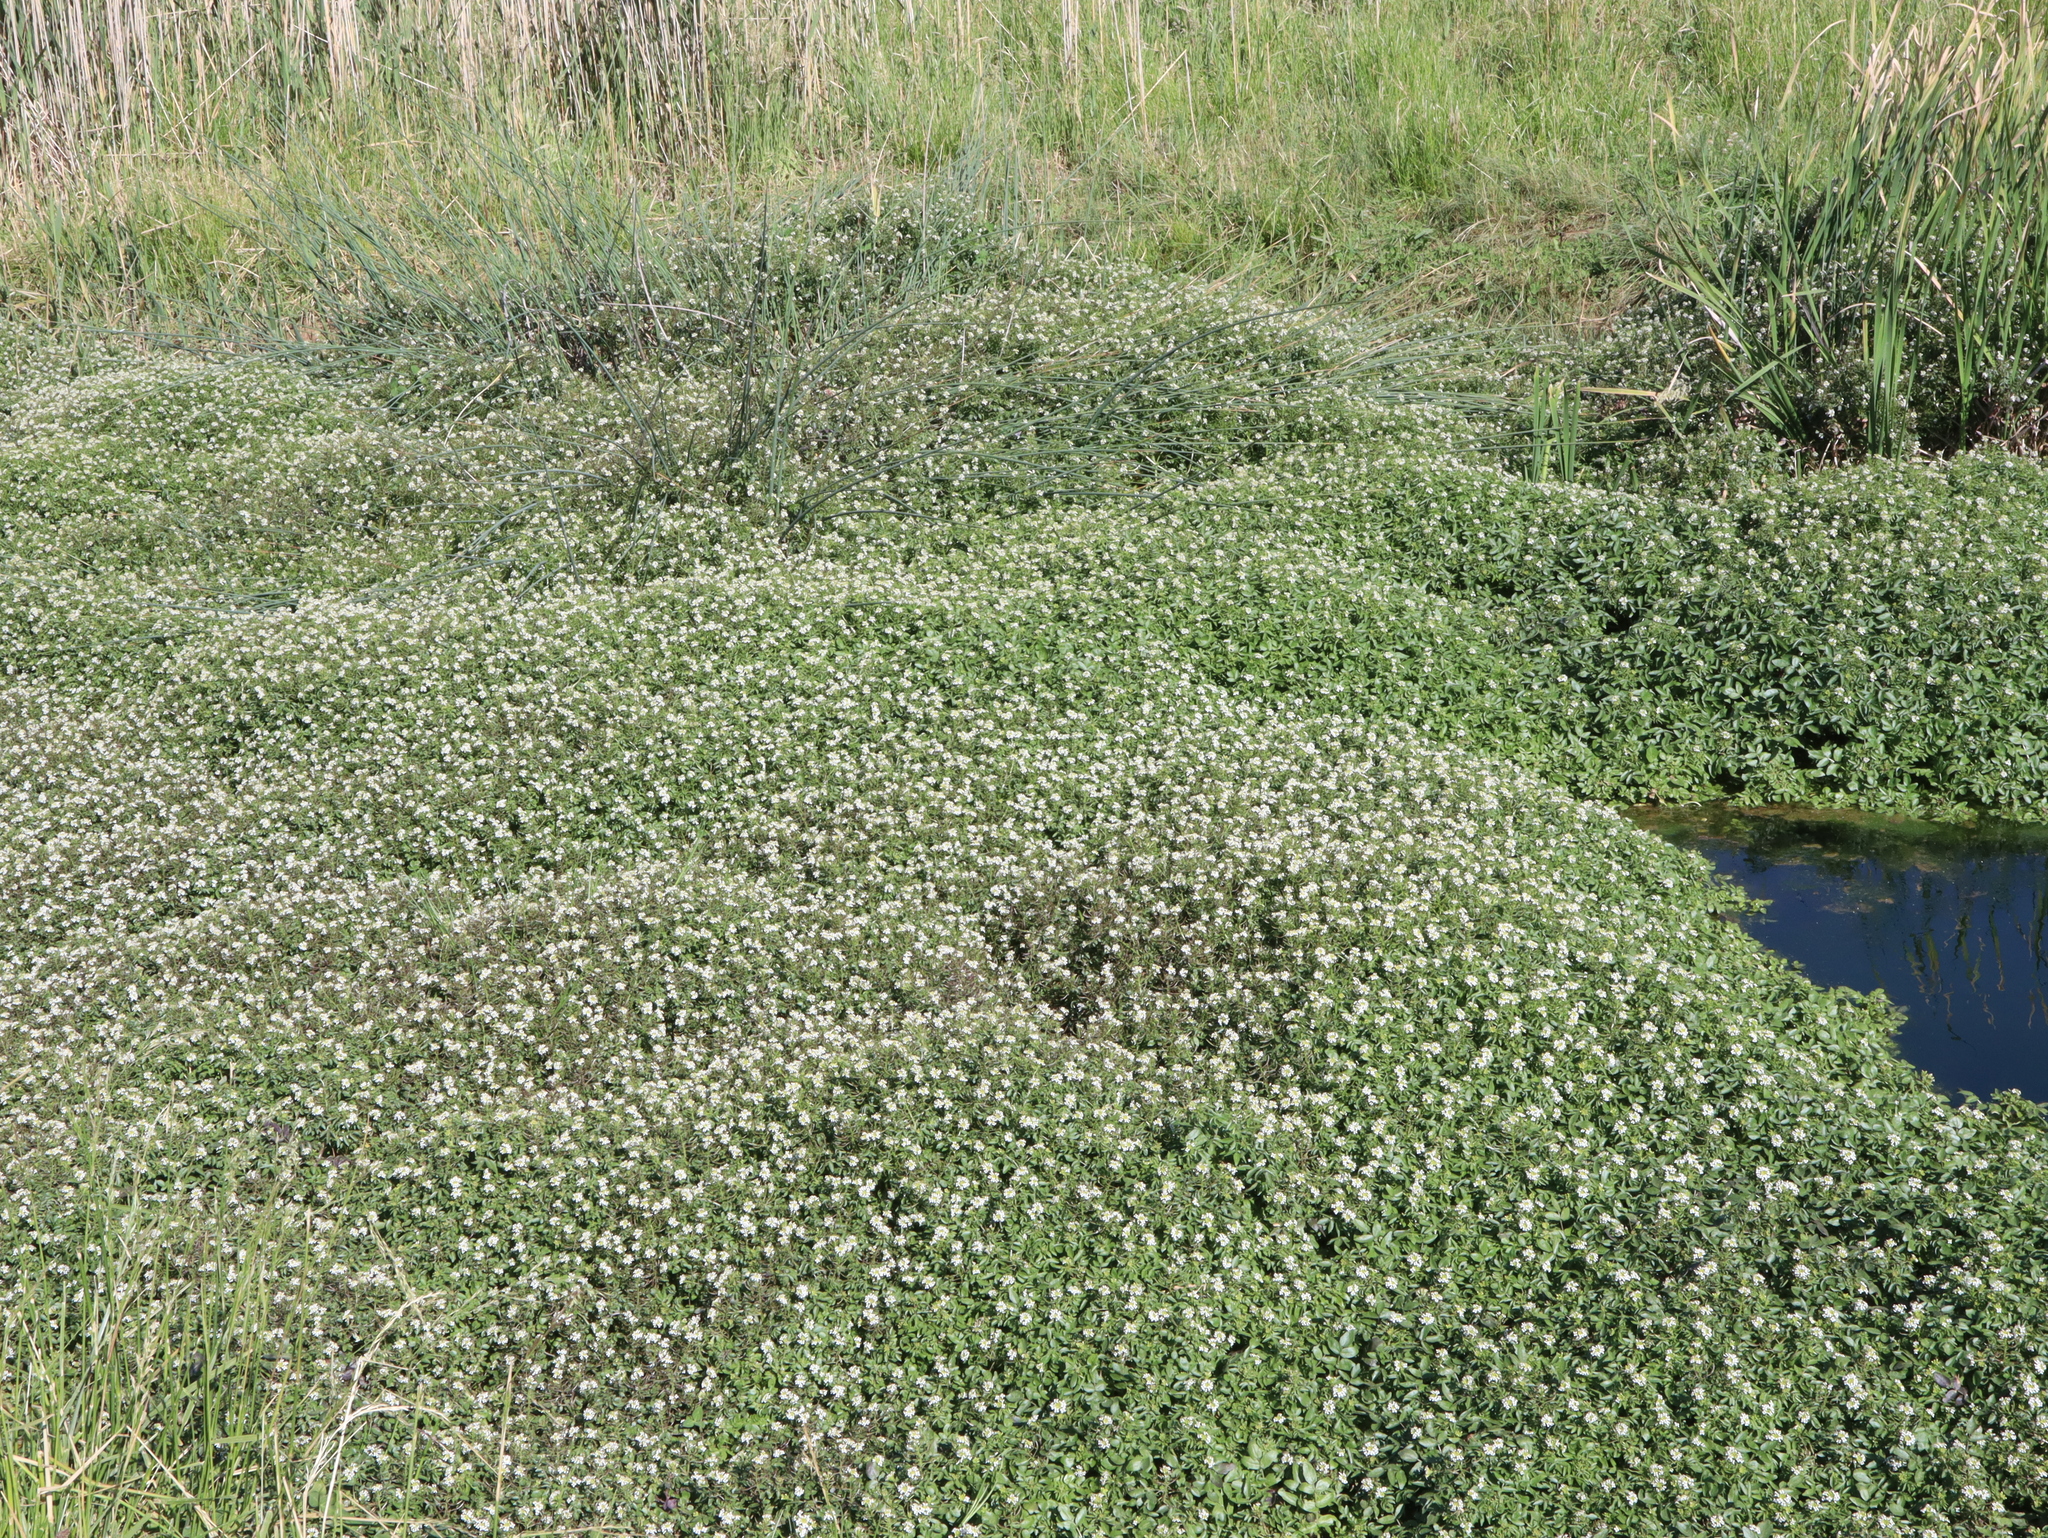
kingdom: Plantae
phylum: Tracheophyta
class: Magnoliopsida
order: Brassicales
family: Brassicaceae
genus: Nasturtium
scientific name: Nasturtium officinale
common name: Watercress
